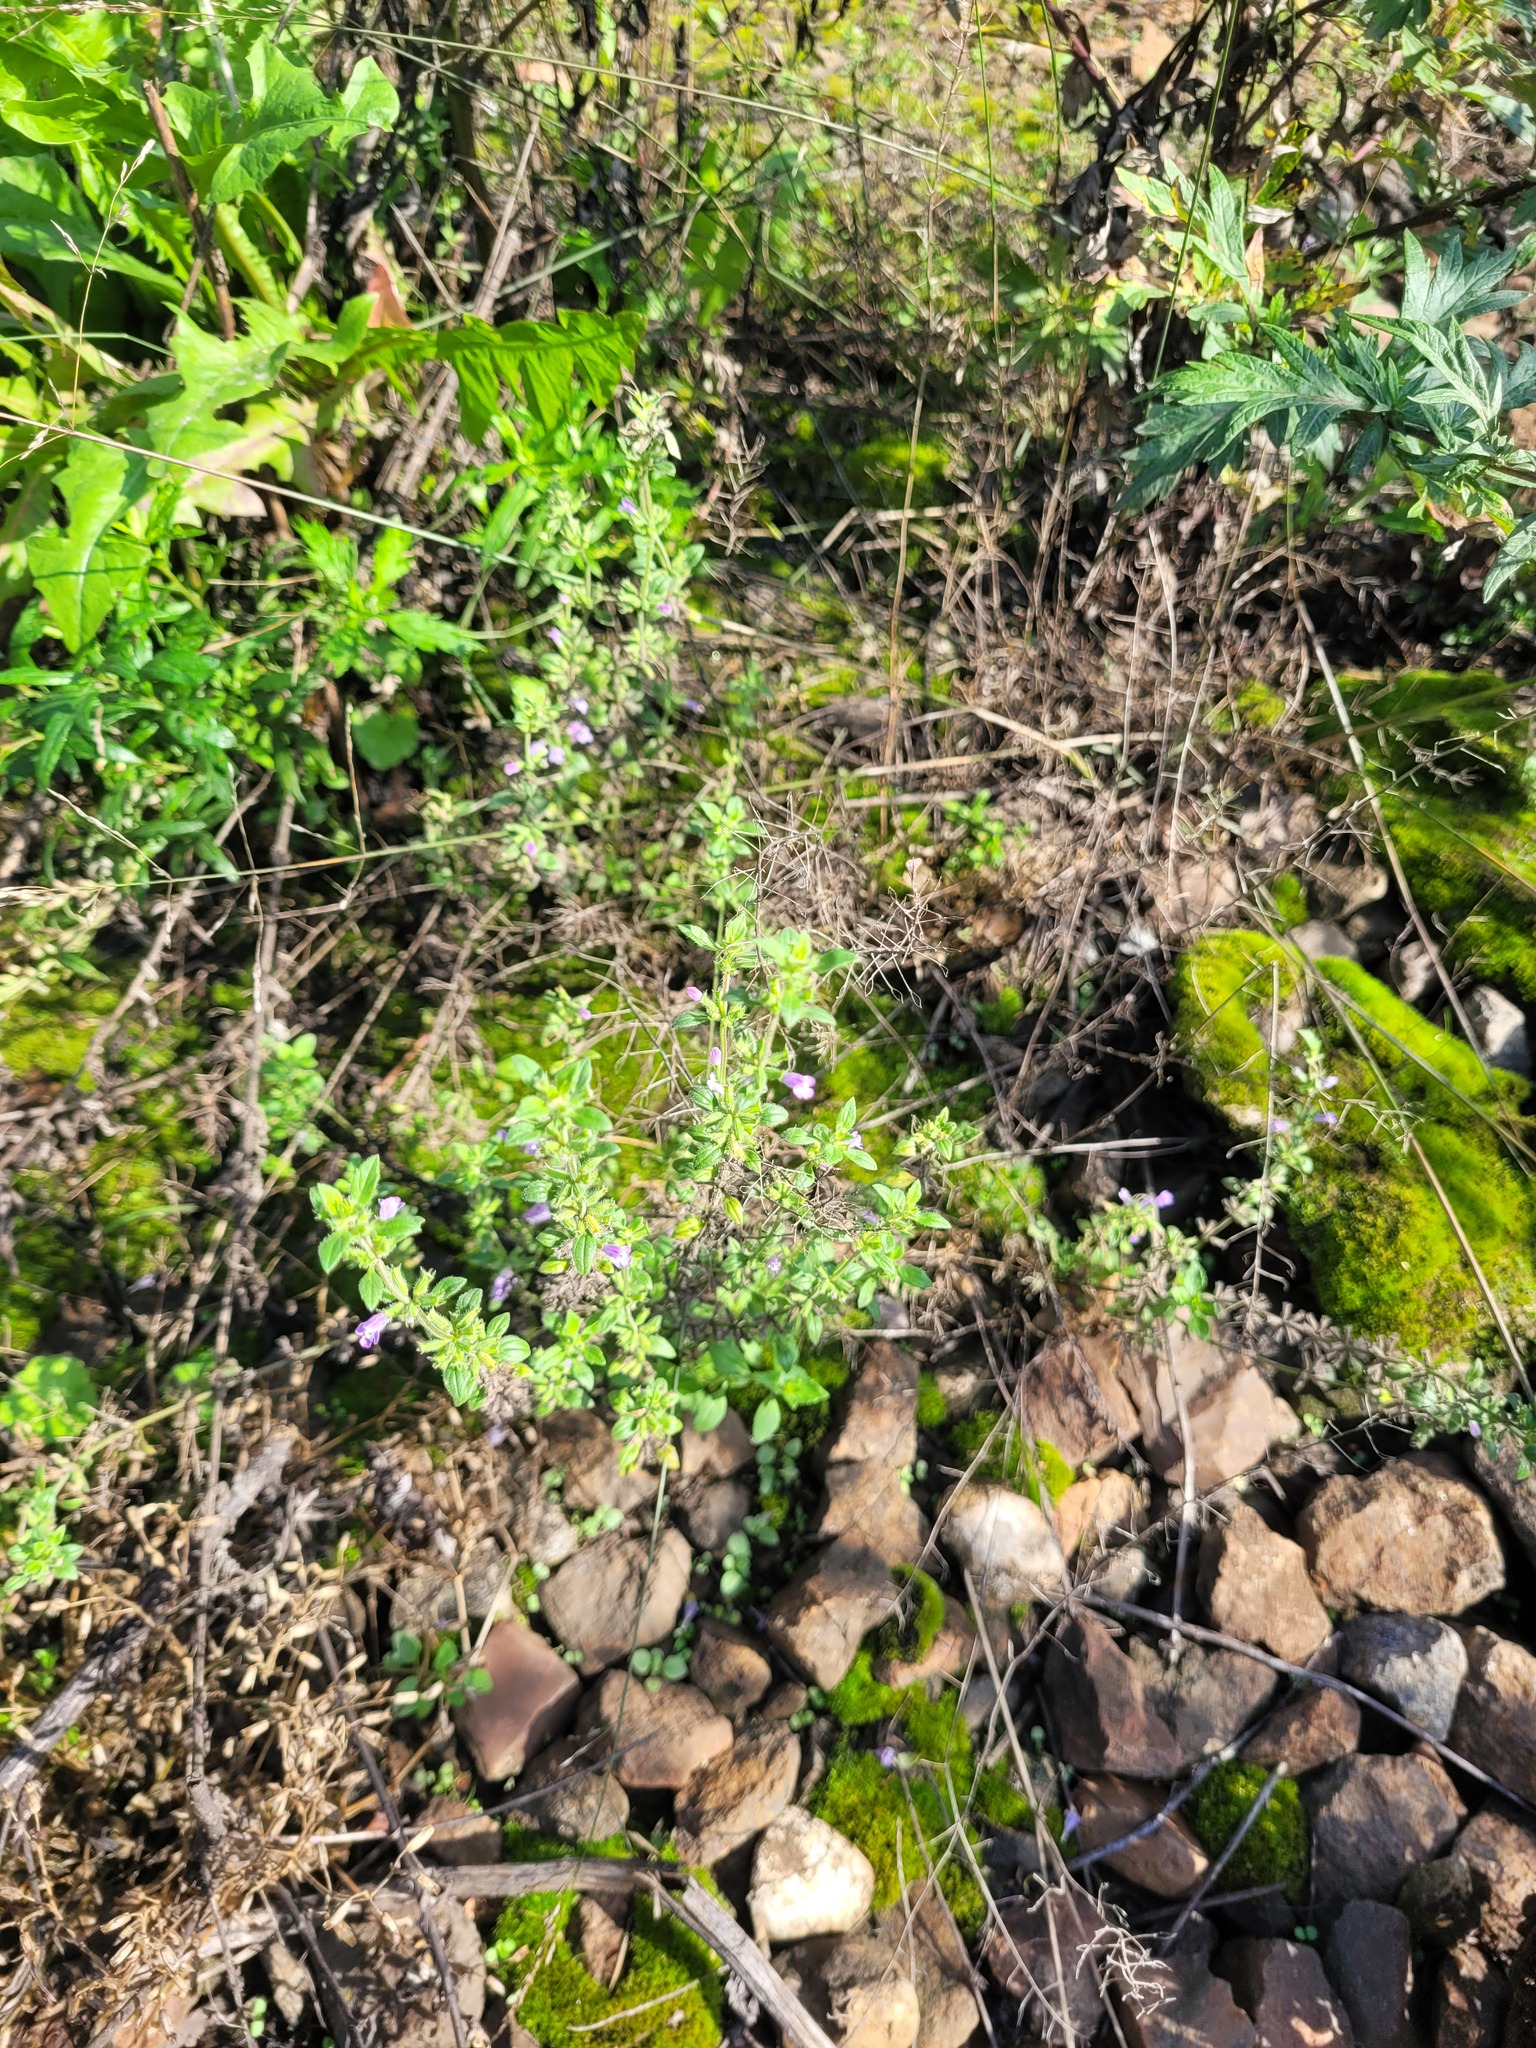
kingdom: Plantae
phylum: Tracheophyta
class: Magnoliopsida
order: Lamiales
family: Lamiaceae
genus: Clinopodium
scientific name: Clinopodium acinos
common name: Basil thyme
